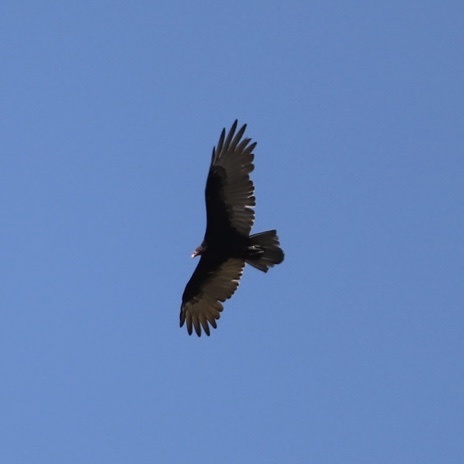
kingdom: Animalia
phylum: Chordata
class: Aves
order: Accipitriformes
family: Cathartidae
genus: Cathartes
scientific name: Cathartes aura
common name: Turkey vulture
